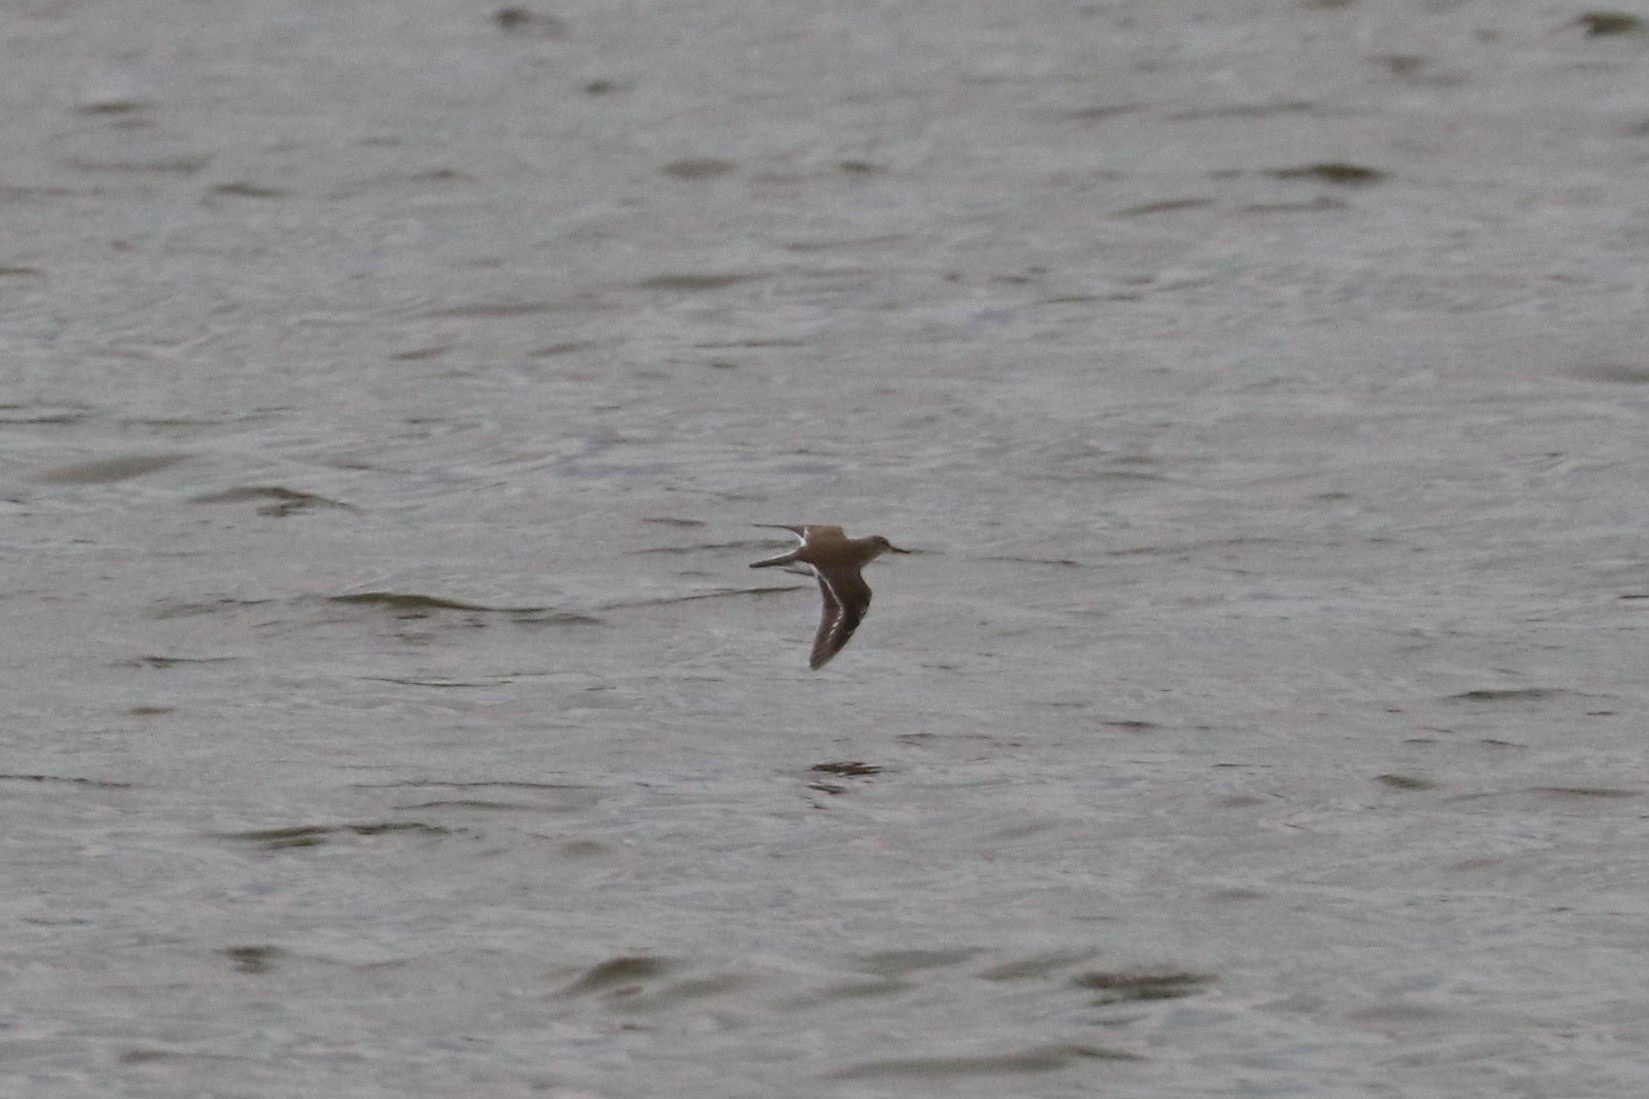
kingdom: Animalia
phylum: Chordata
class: Aves
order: Charadriiformes
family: Scolopacidae
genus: Actitis
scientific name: Actitis hypoleucos
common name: Common sandpiper
